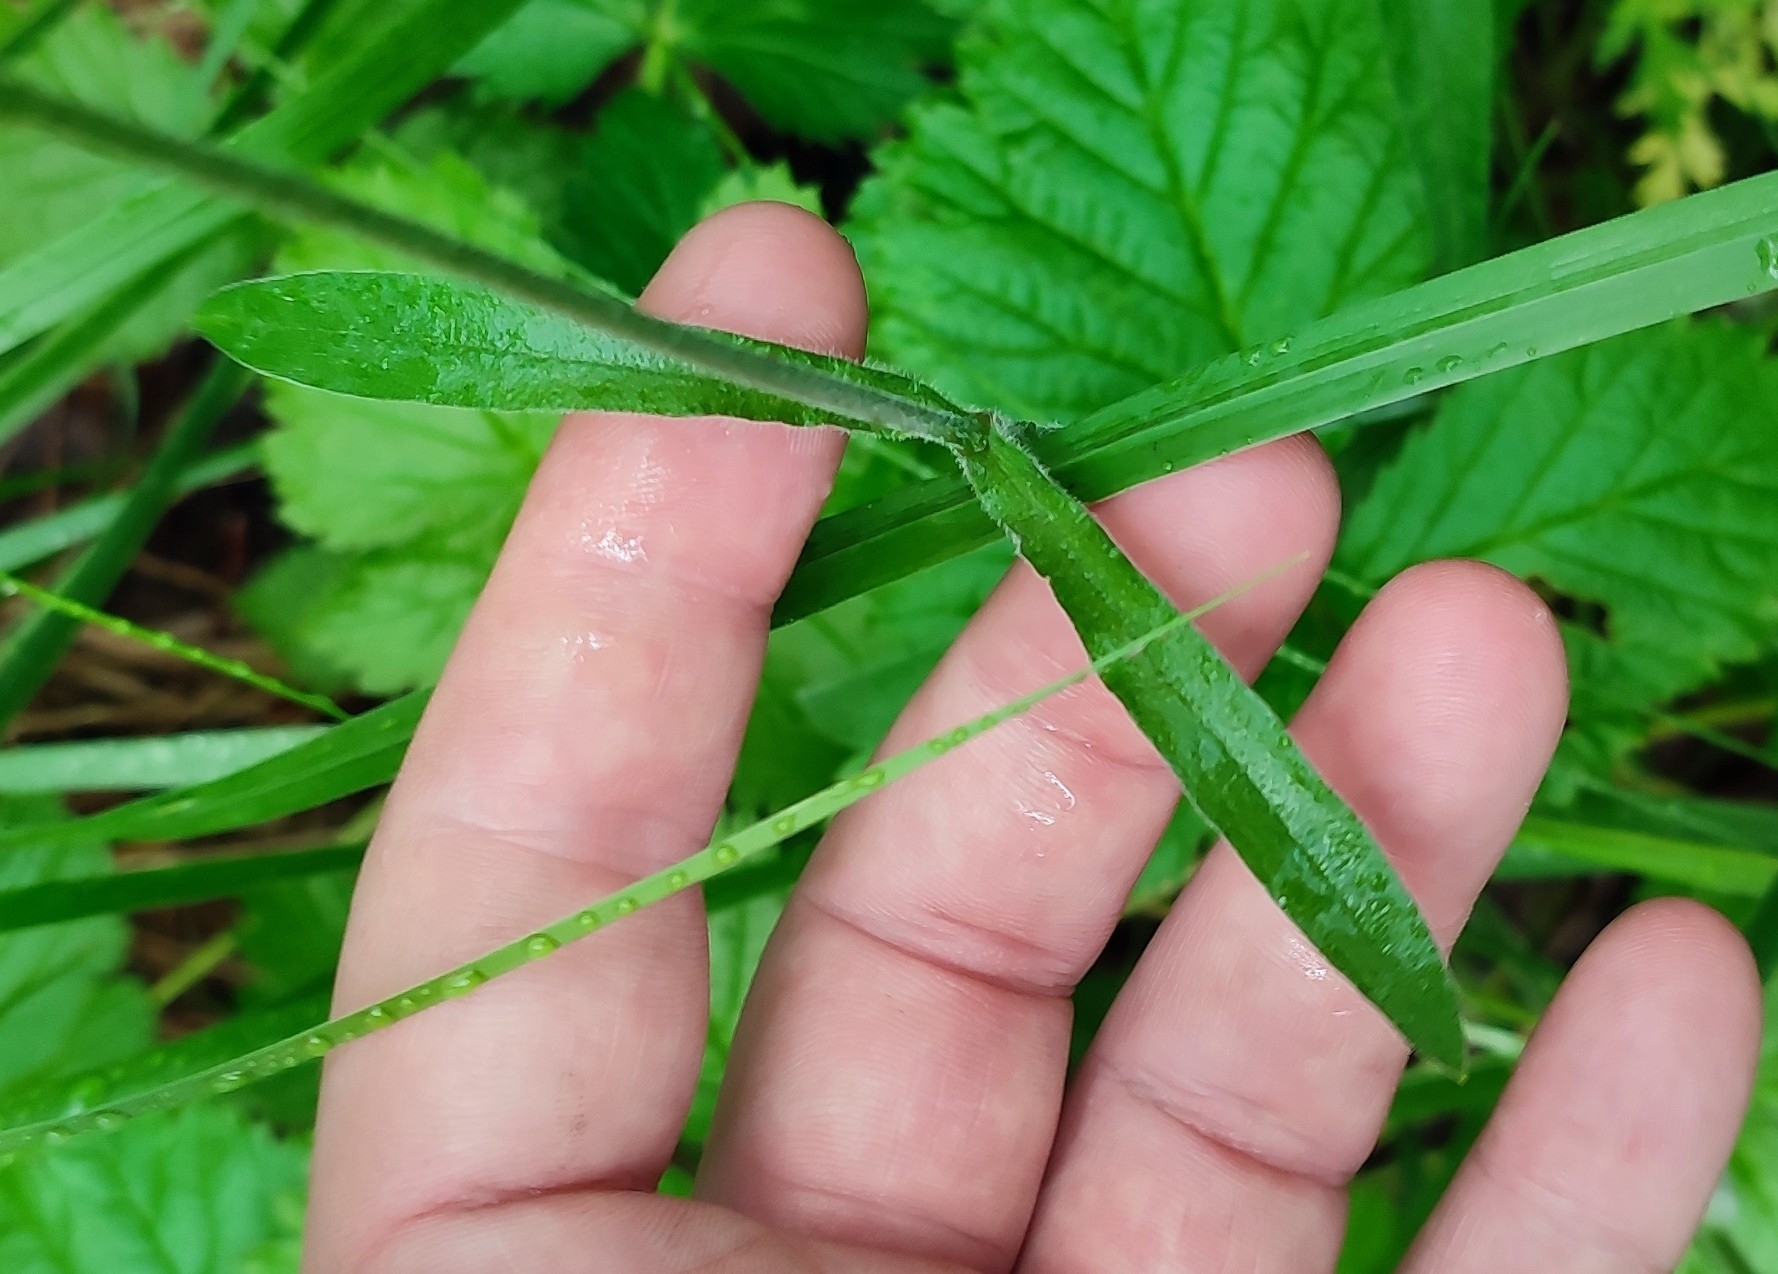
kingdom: Plantae
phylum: Tracheophyta
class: Magnoliopsida
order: Caryophyllales
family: Caryophyllaceae
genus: Silene
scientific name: Silene nutans
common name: Nottingham catchfly
